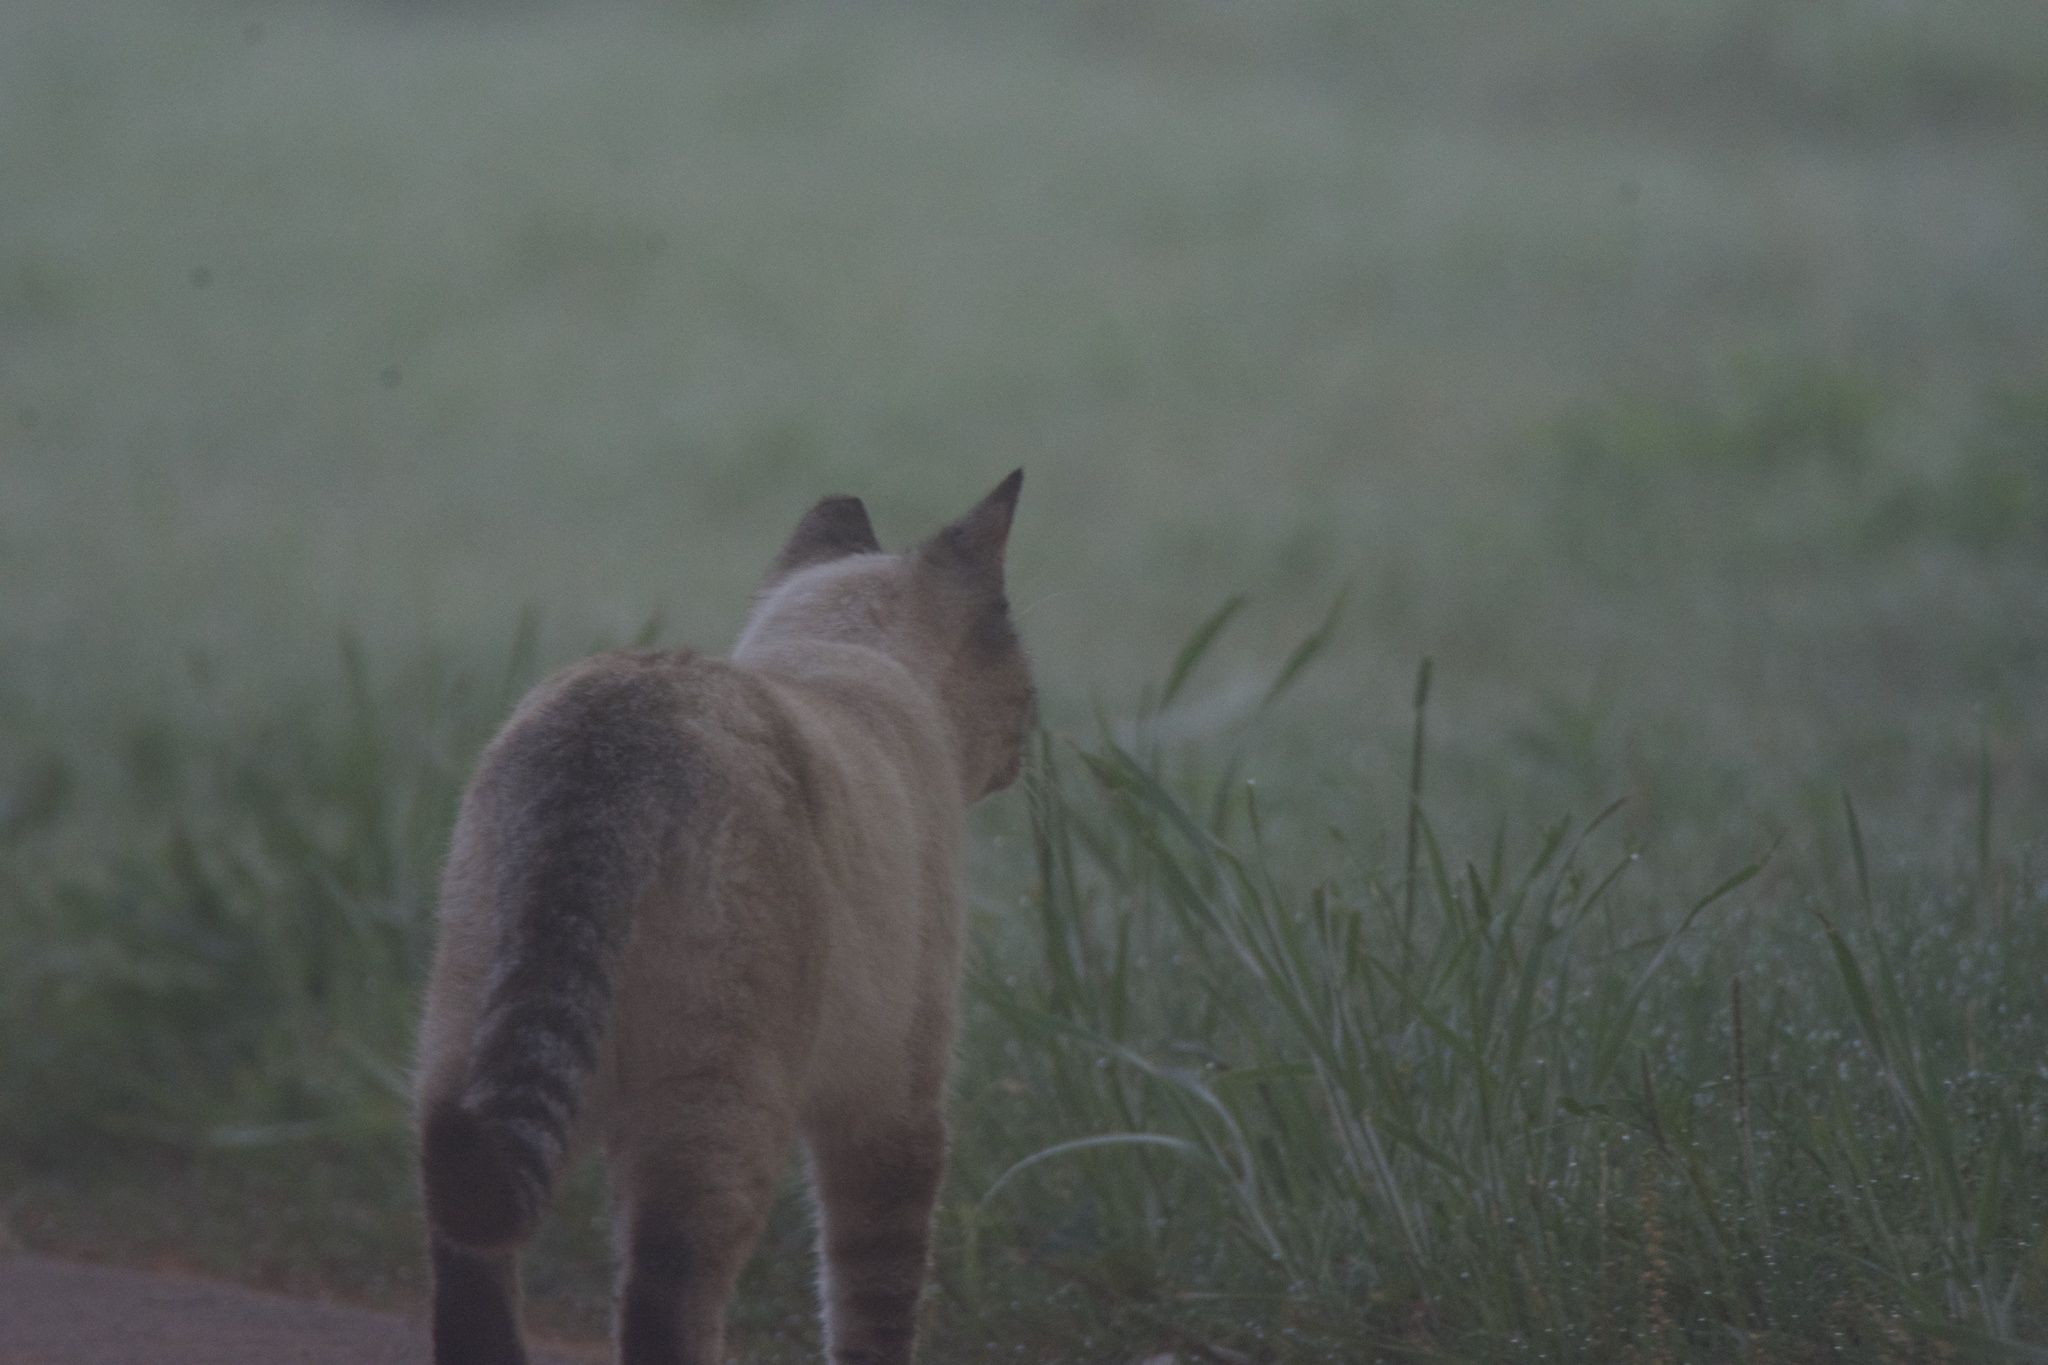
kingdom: Animalia
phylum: Chordata
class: Mammalia
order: Carnivora
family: Felidae
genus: Felis
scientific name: Felis catus
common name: Domestic cat
